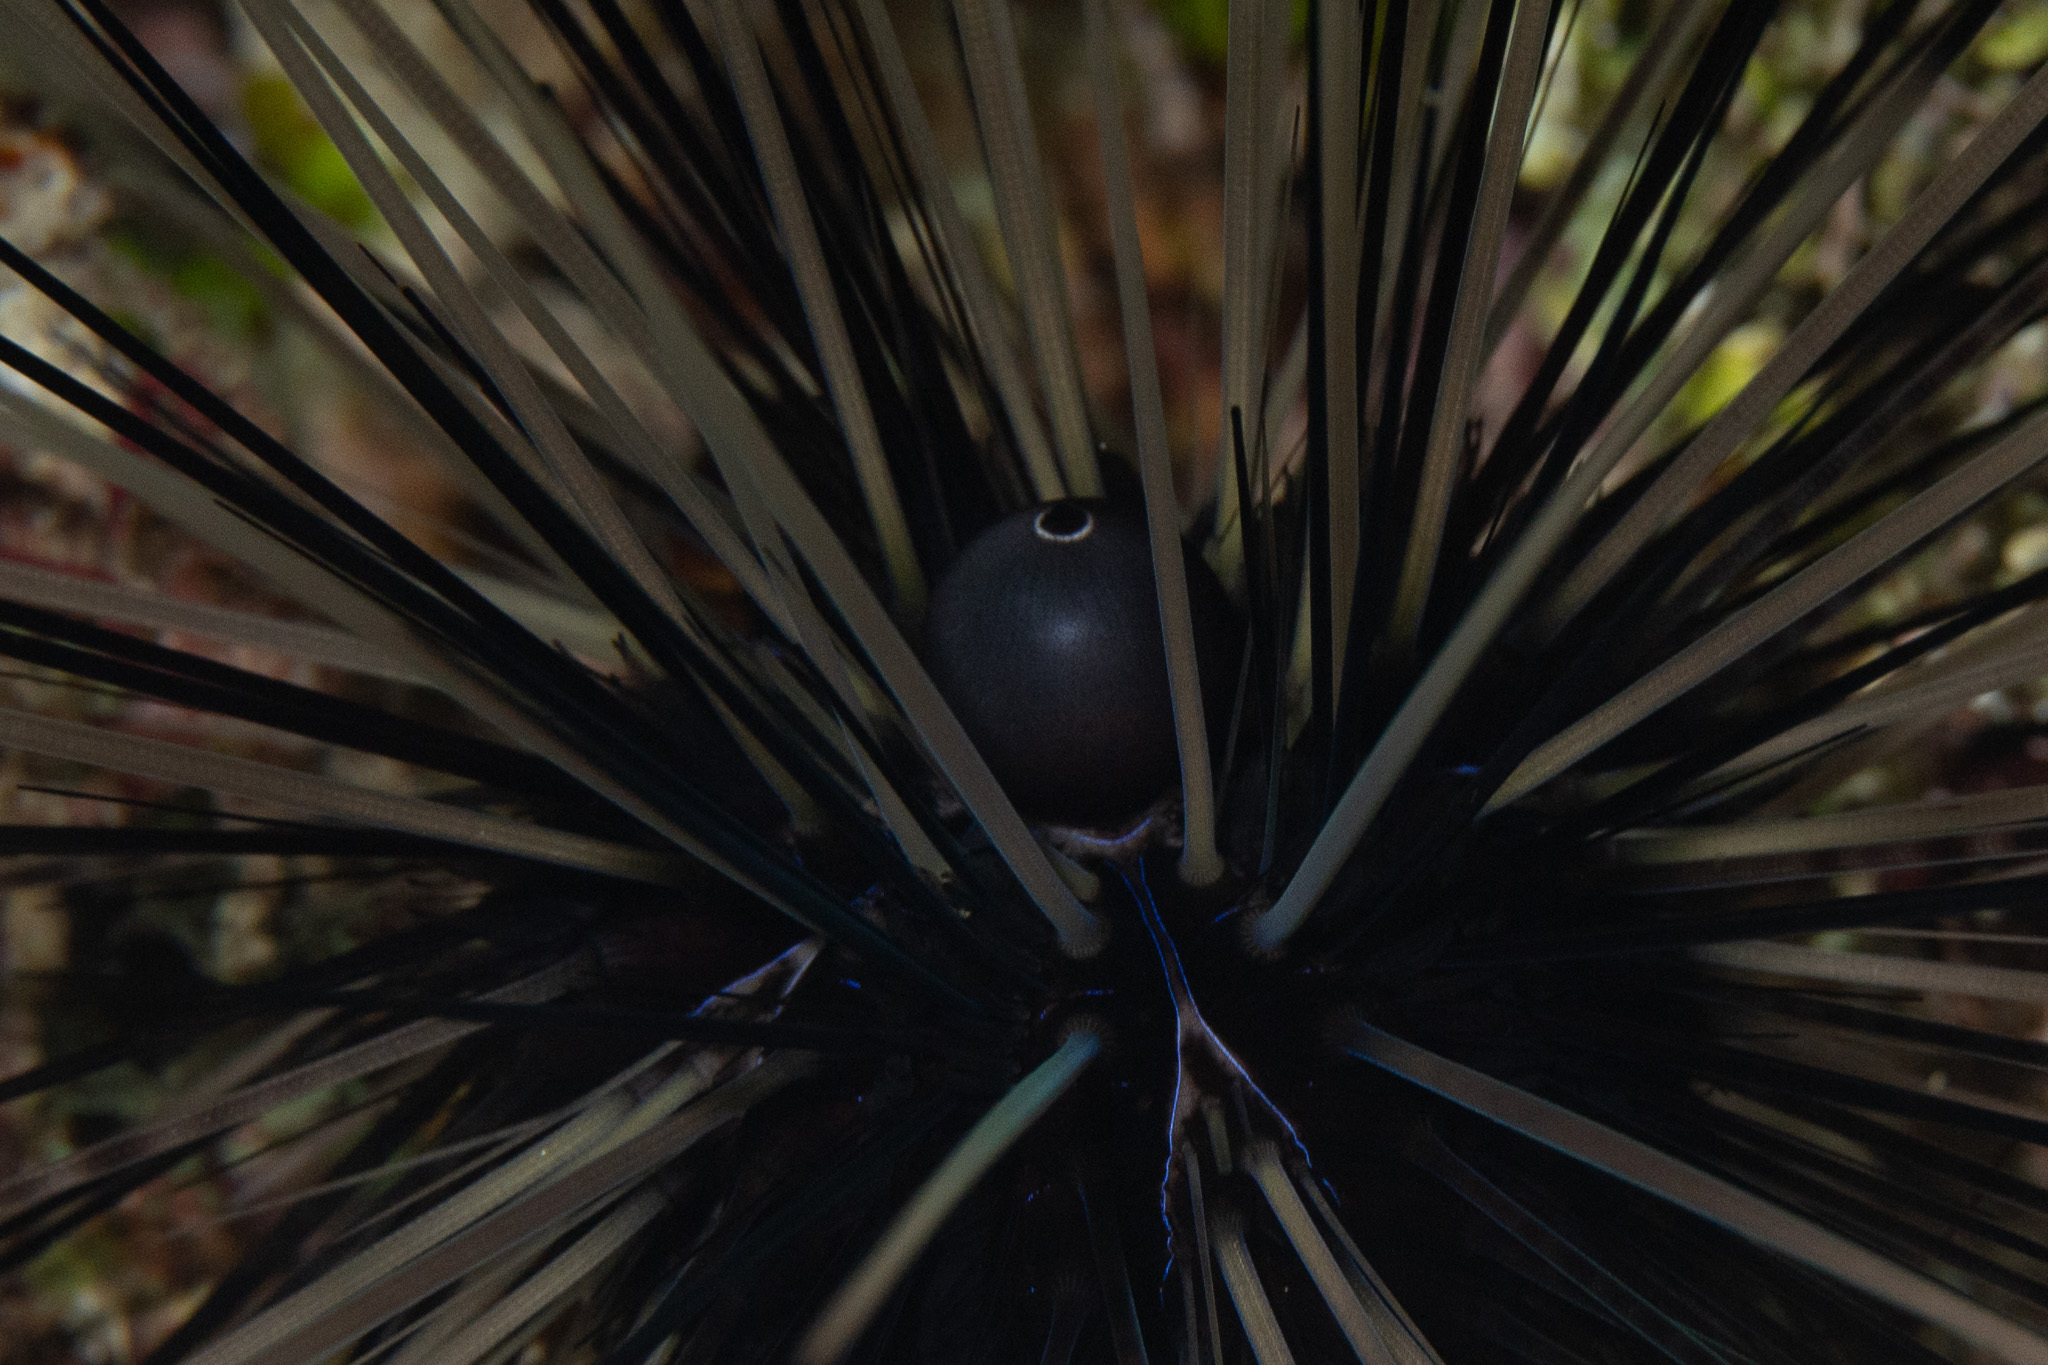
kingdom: Animalia
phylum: Echinodermata
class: Echinoidea
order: Diadematoida
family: Diadematidae
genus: Diadema
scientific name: Diadema antillarum
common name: Spiny urchin
